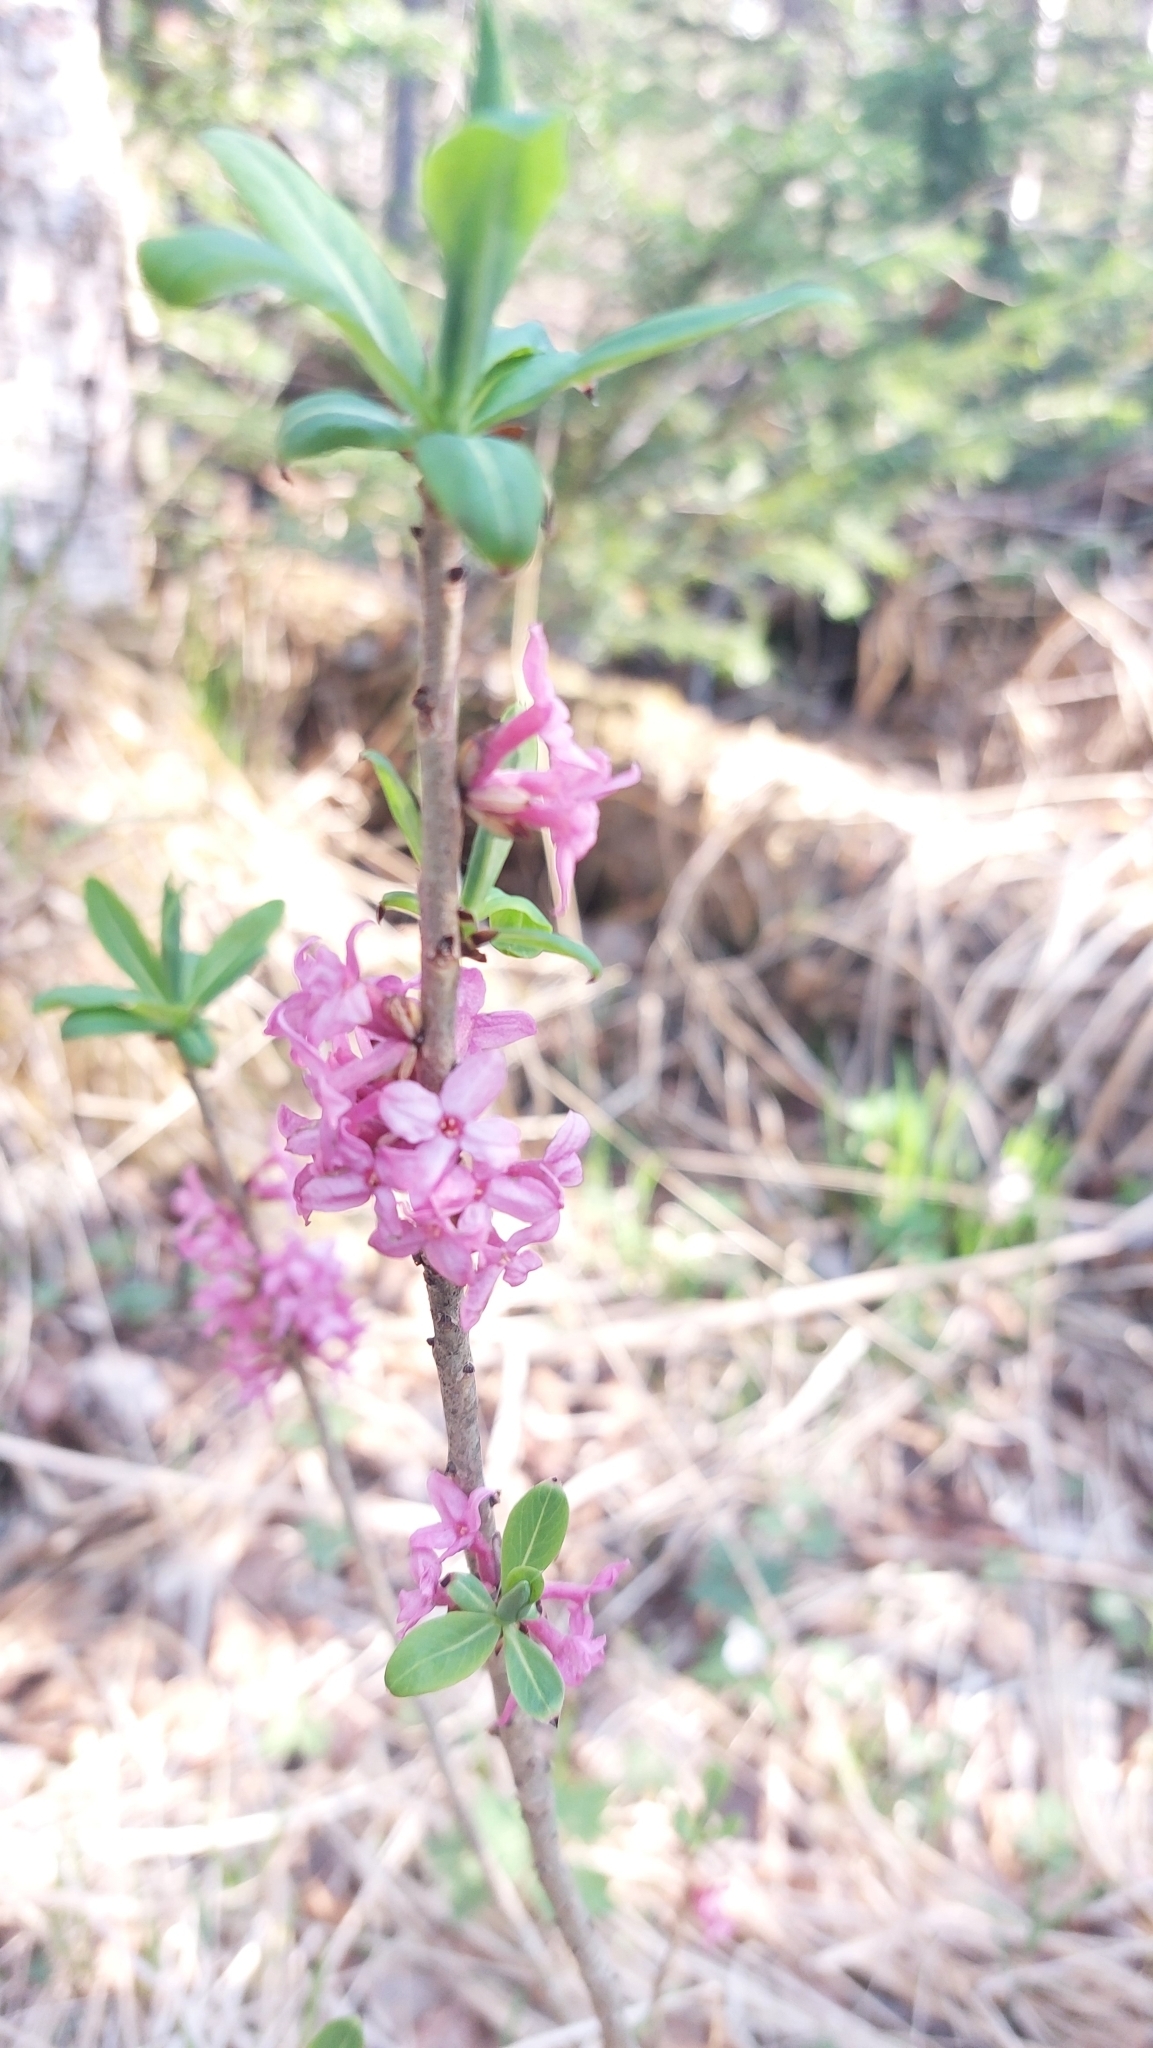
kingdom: Plantae
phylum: Tracheophyta
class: Magnoliopsida
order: Malvales
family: Thymelaeaceae
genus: Daphne
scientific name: Daphne mezereum
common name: Mezereon
